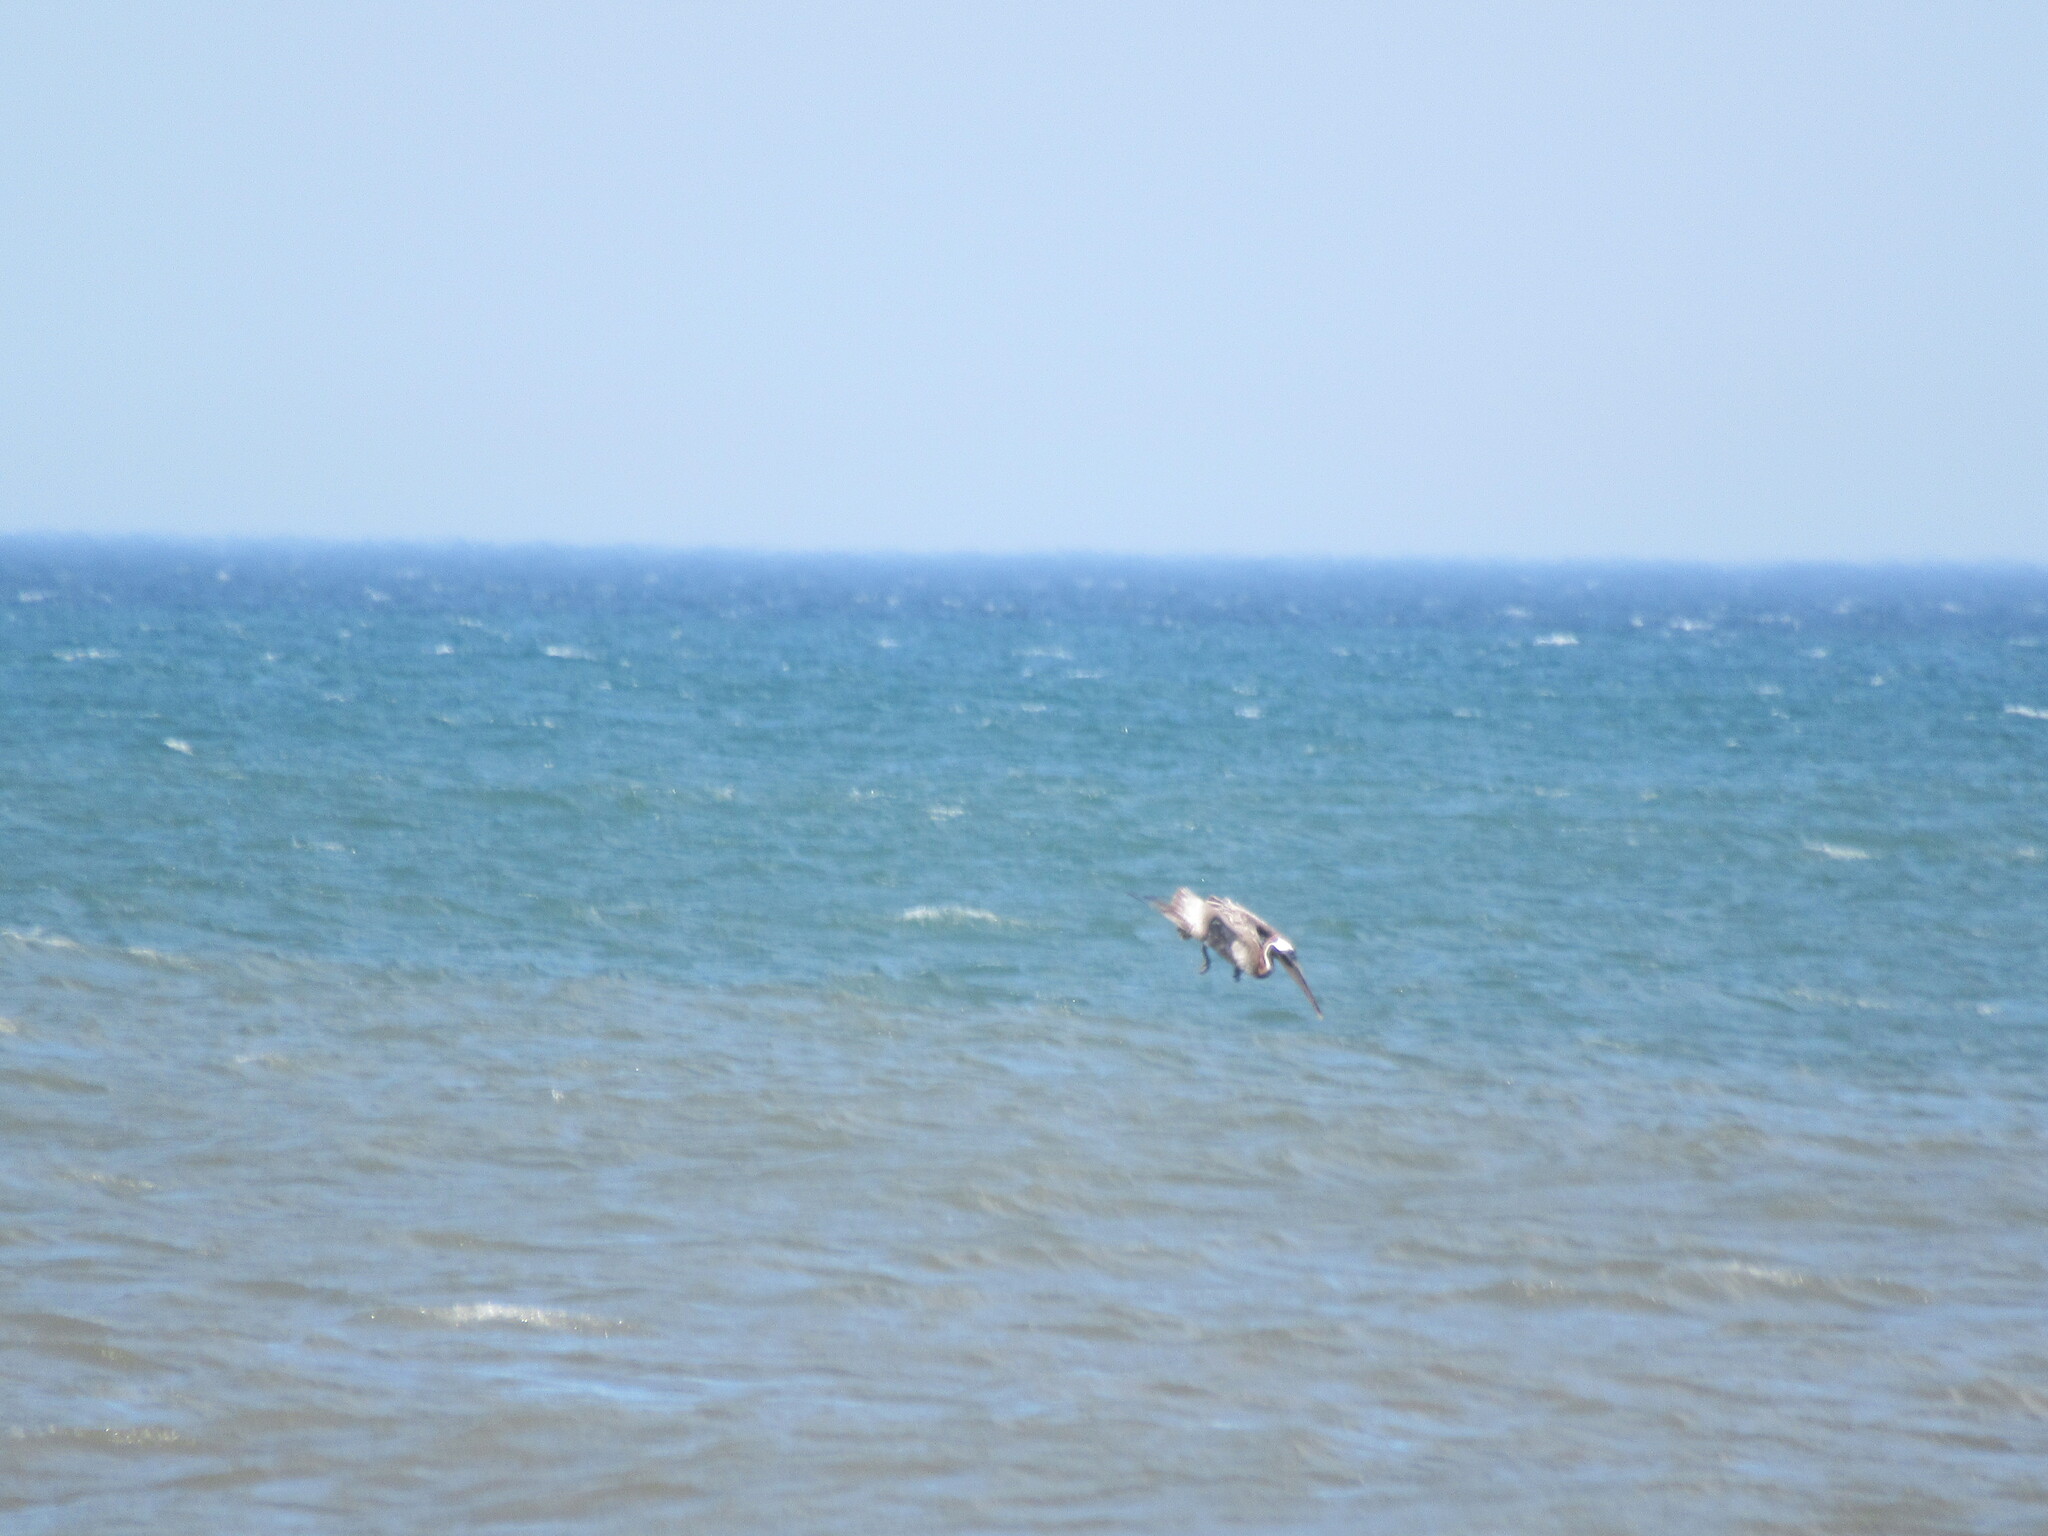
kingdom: Animalia
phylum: Chordata
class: Aves
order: Pelecaniformes
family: Pelecanidae
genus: Pelecanus
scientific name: Pelecanus occidentalis
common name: Brown pelican
